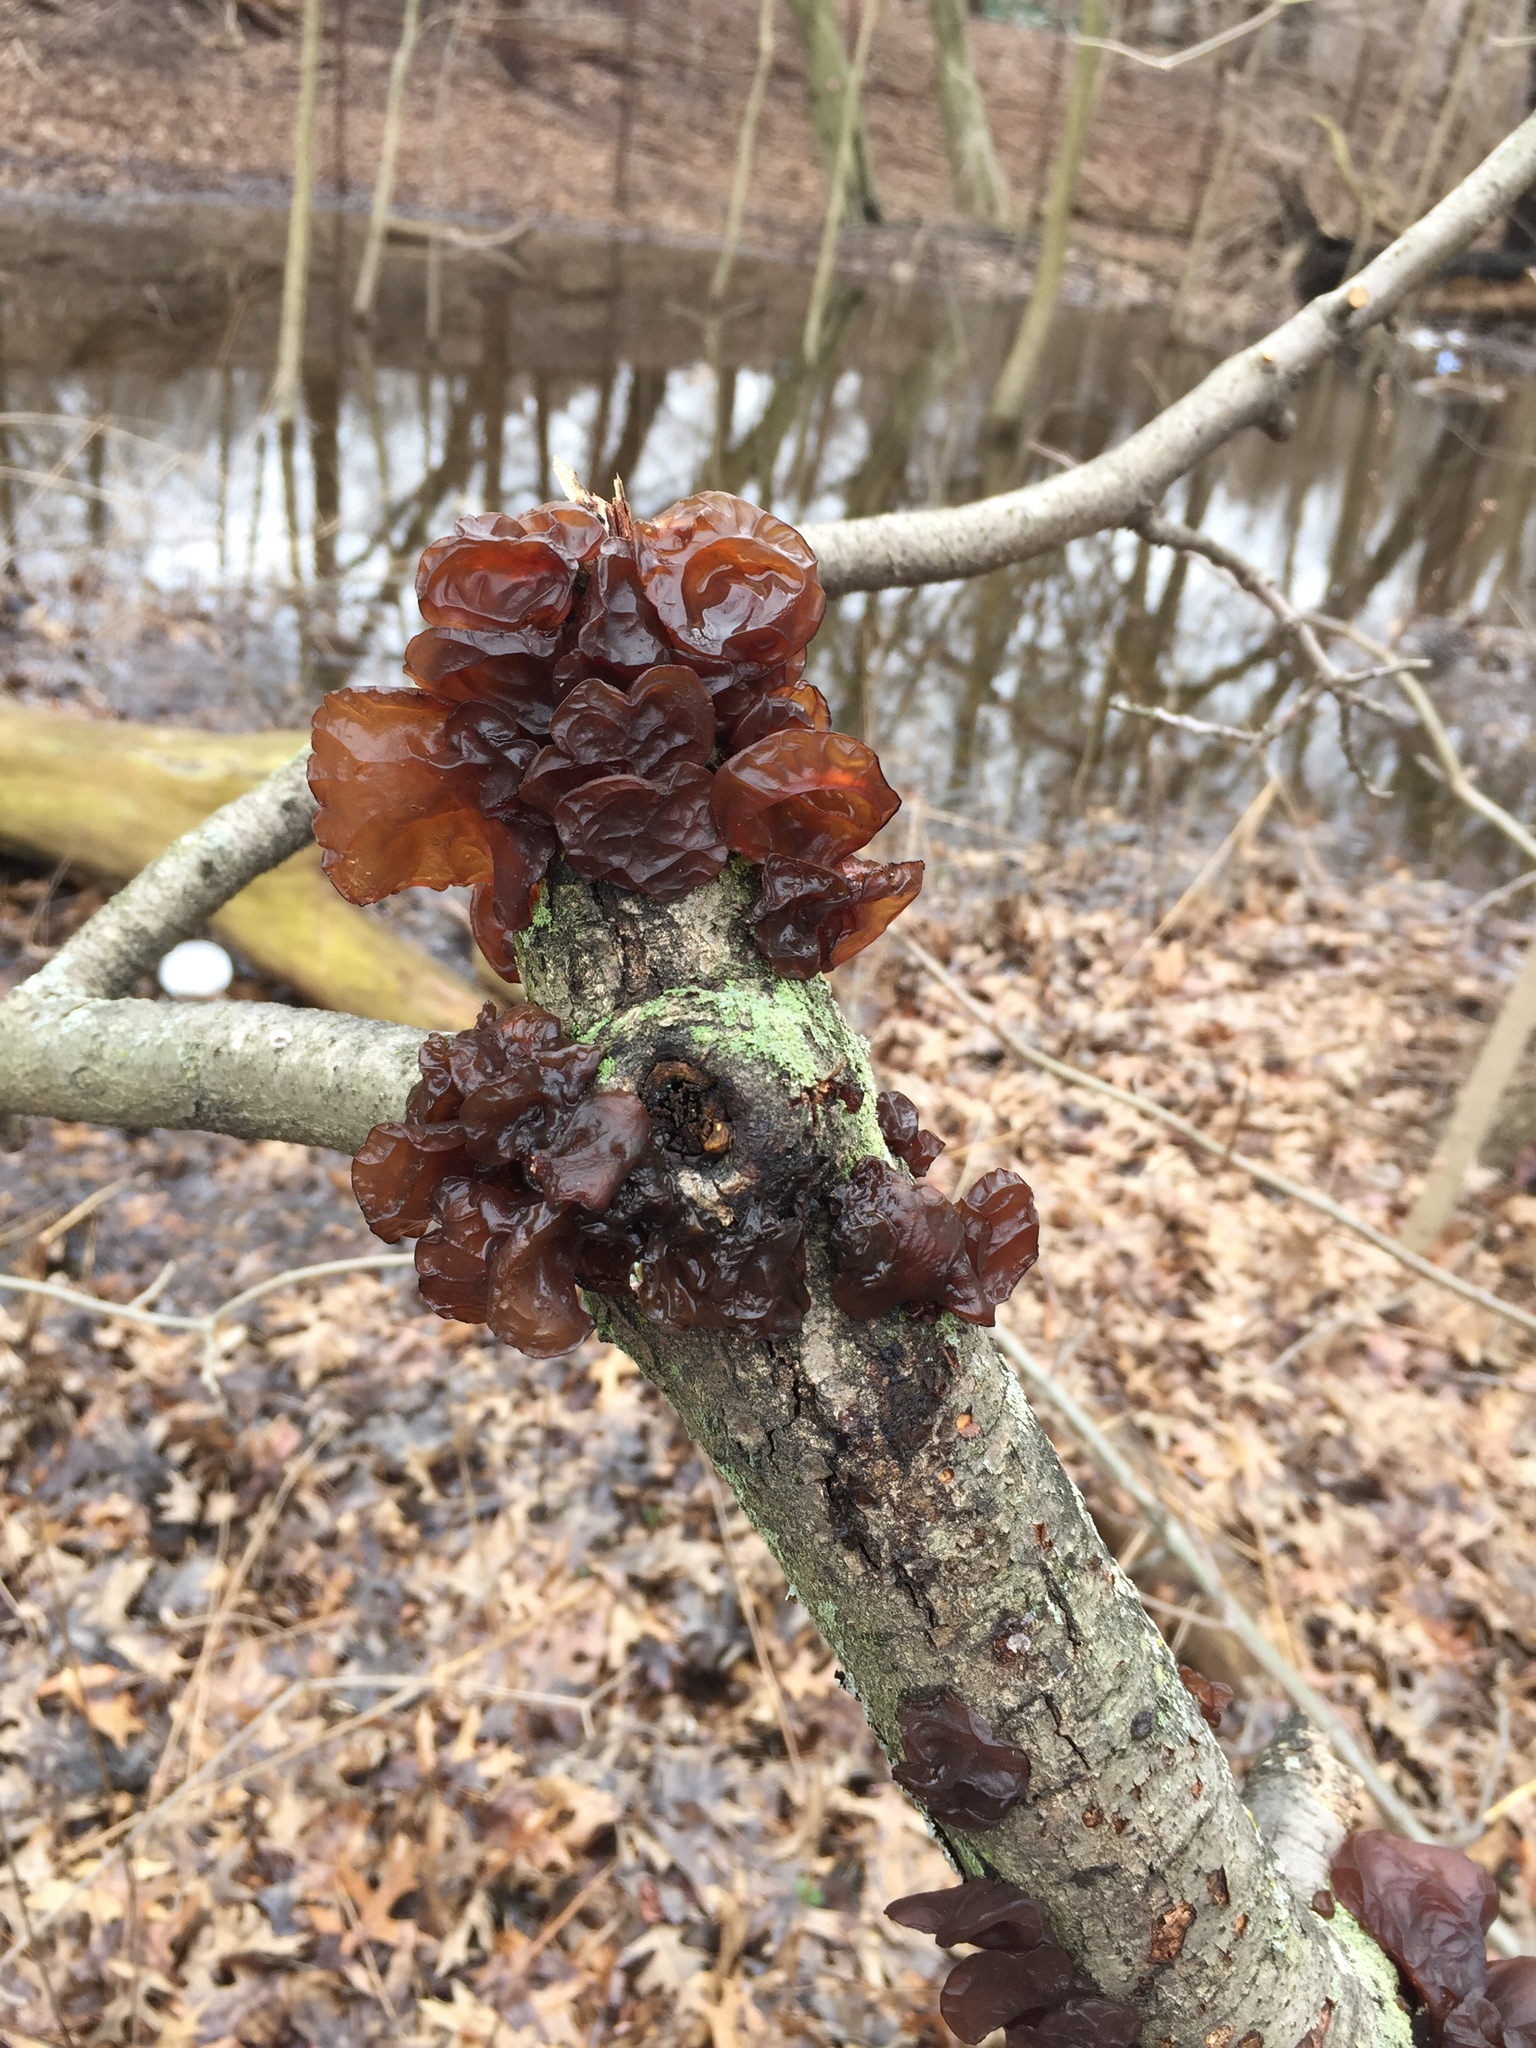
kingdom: Fungi
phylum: Basidiomycota
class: Agaricomycetes
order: Auriculariales
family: Auriculariaceae
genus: Exidia
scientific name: Exidia
